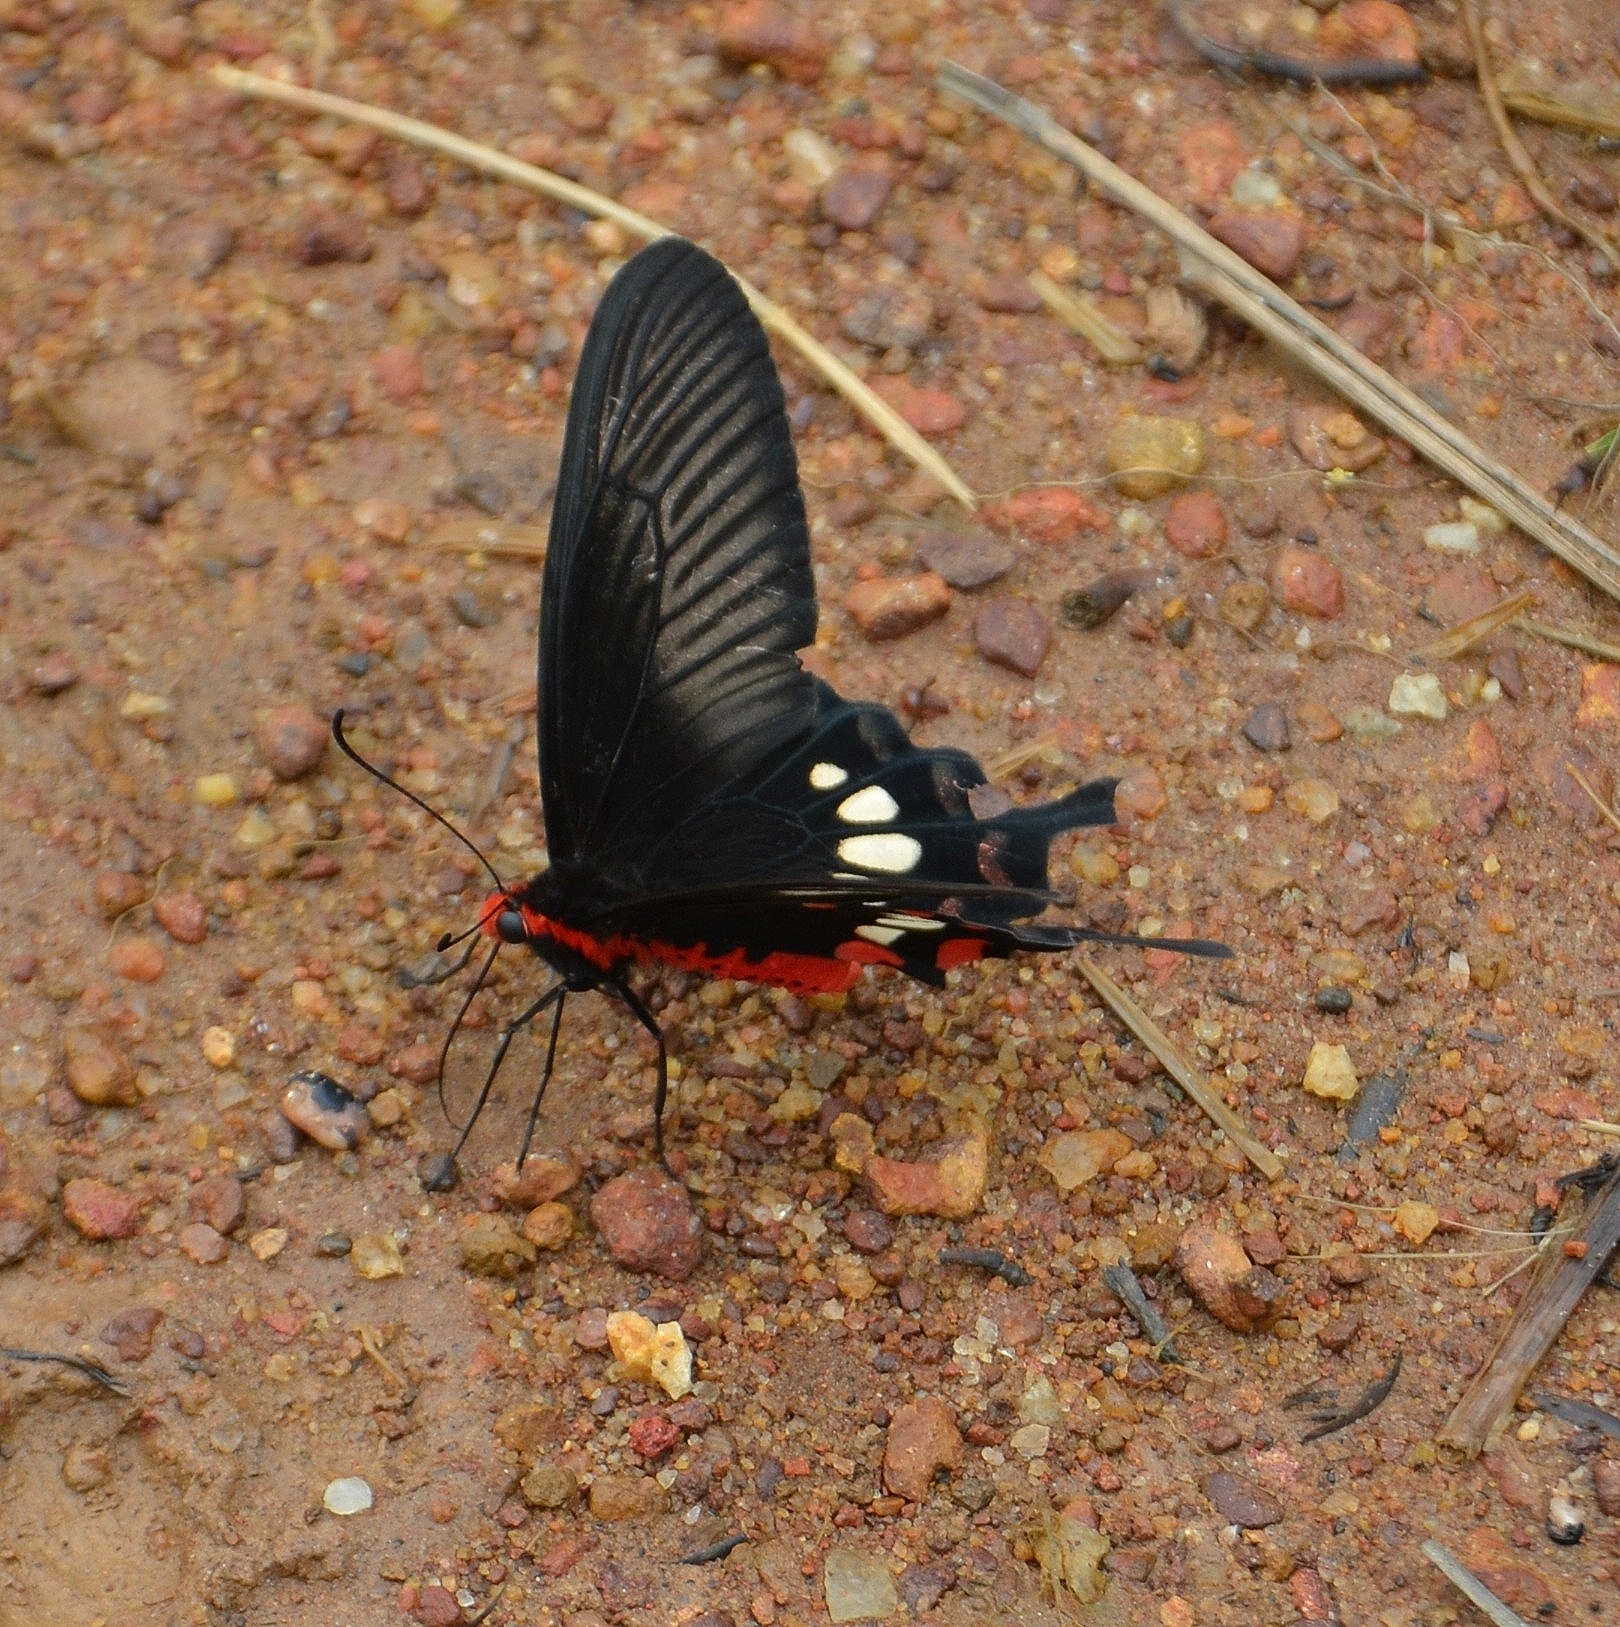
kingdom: Animalia
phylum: Arthropoda
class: Insecta
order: Lepidoptera
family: Papilionidae
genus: Pachliopta
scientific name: Pachliopta aristolochiae
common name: Common rose
